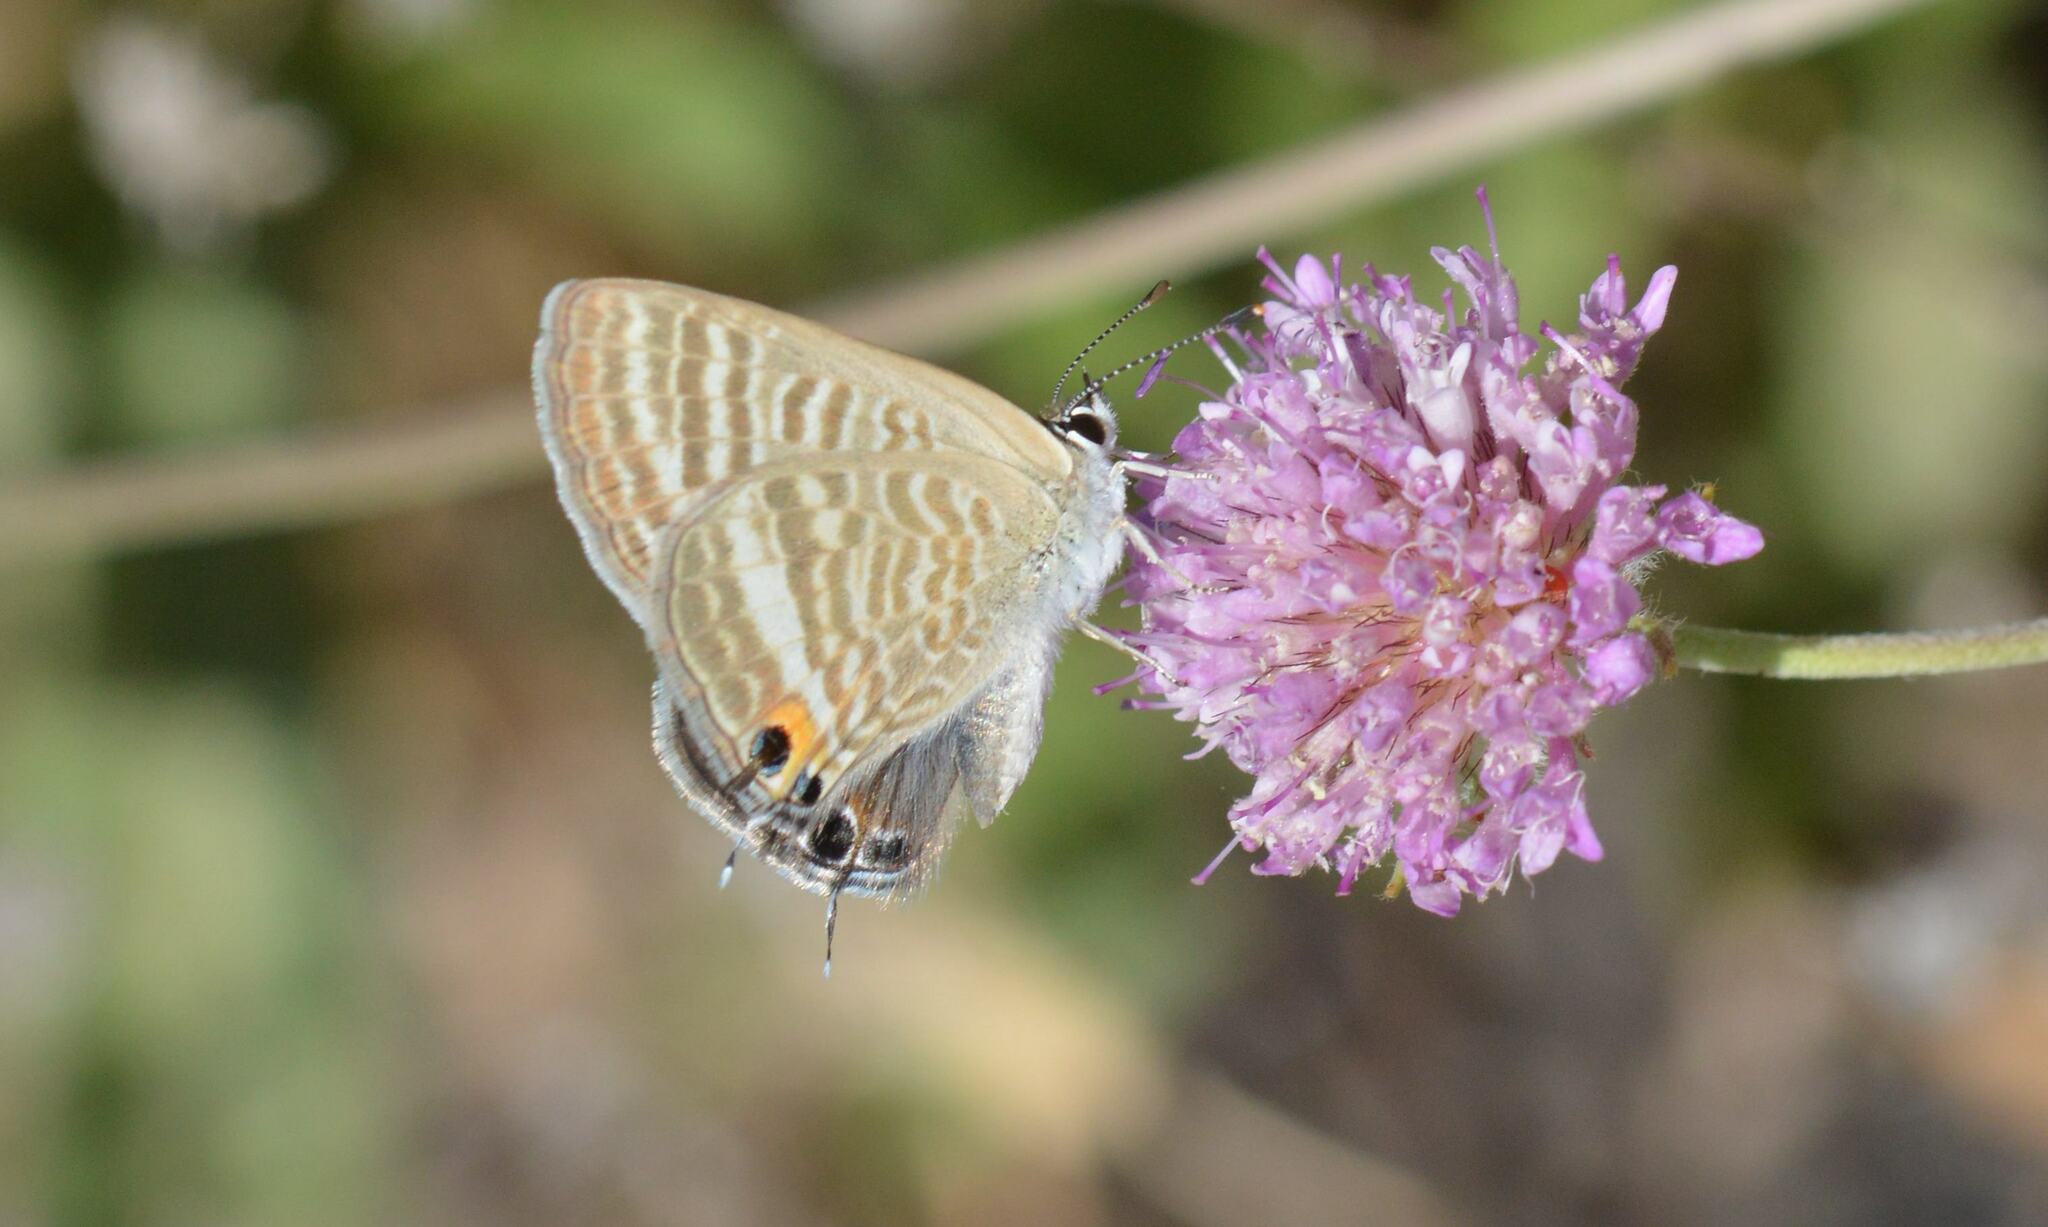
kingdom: Animalia
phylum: Arthropoda
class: Insecta
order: Lepidoptera
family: Lycaenidae
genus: Lampides
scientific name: Lampides boeticus
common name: Long-tailed blue
